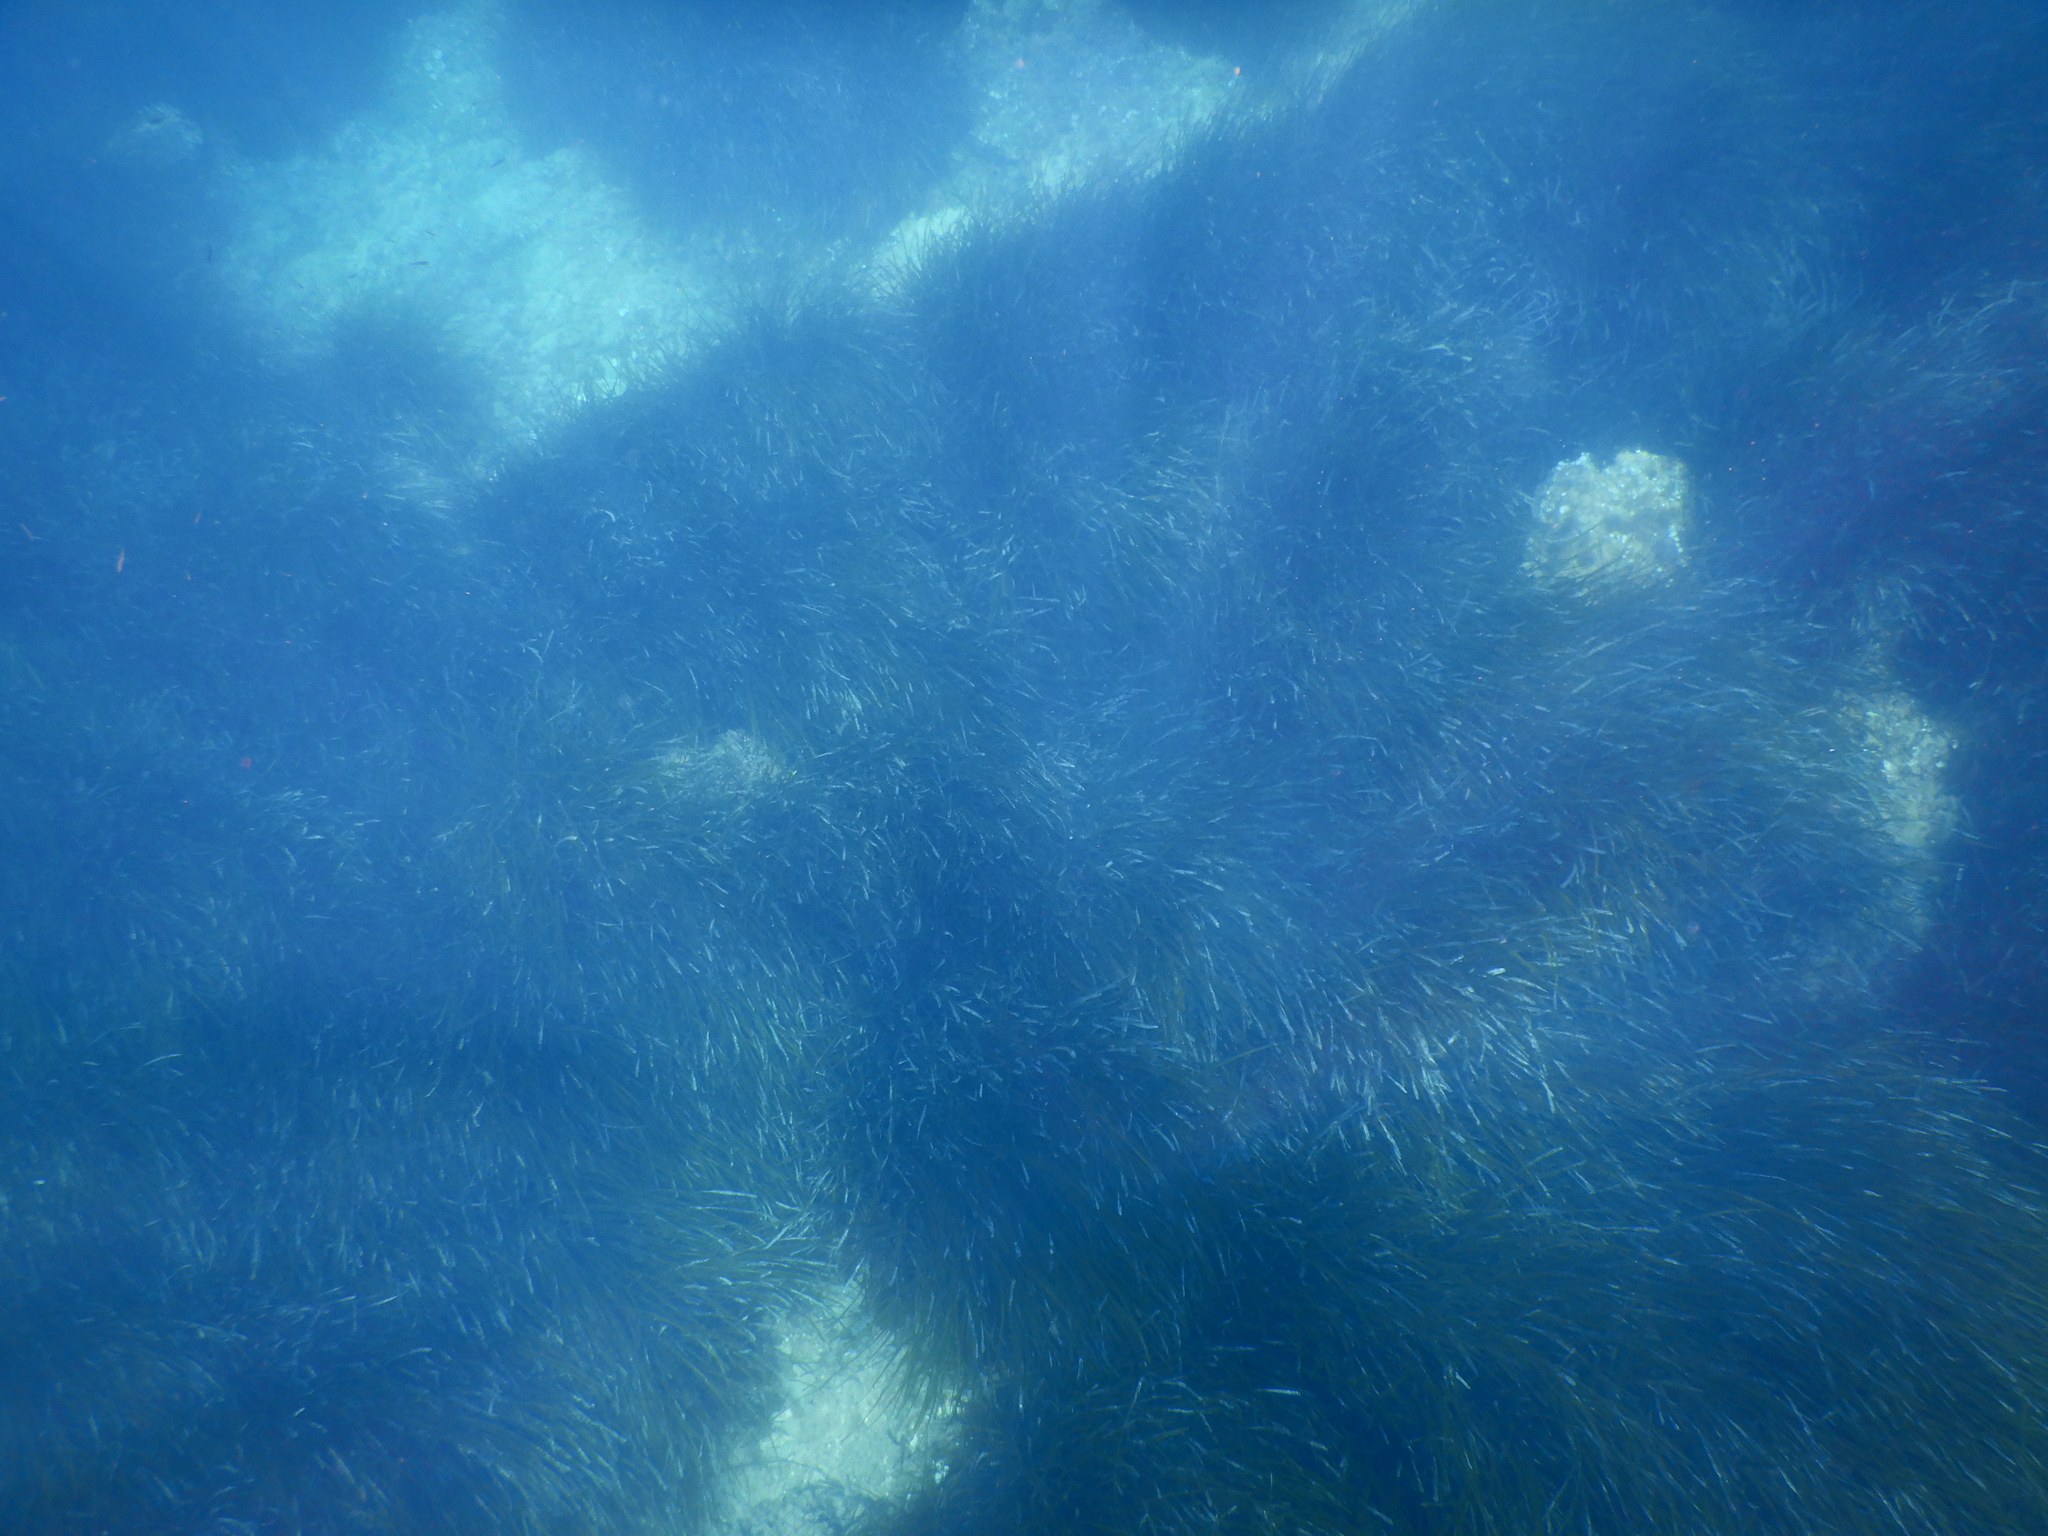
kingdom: Plantae
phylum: Tracheophyta
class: Liliopsida
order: Alismatales
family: Posidoniaceae
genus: Posidonia
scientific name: Posidonia oceanica
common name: Mediterranean tapeweed
